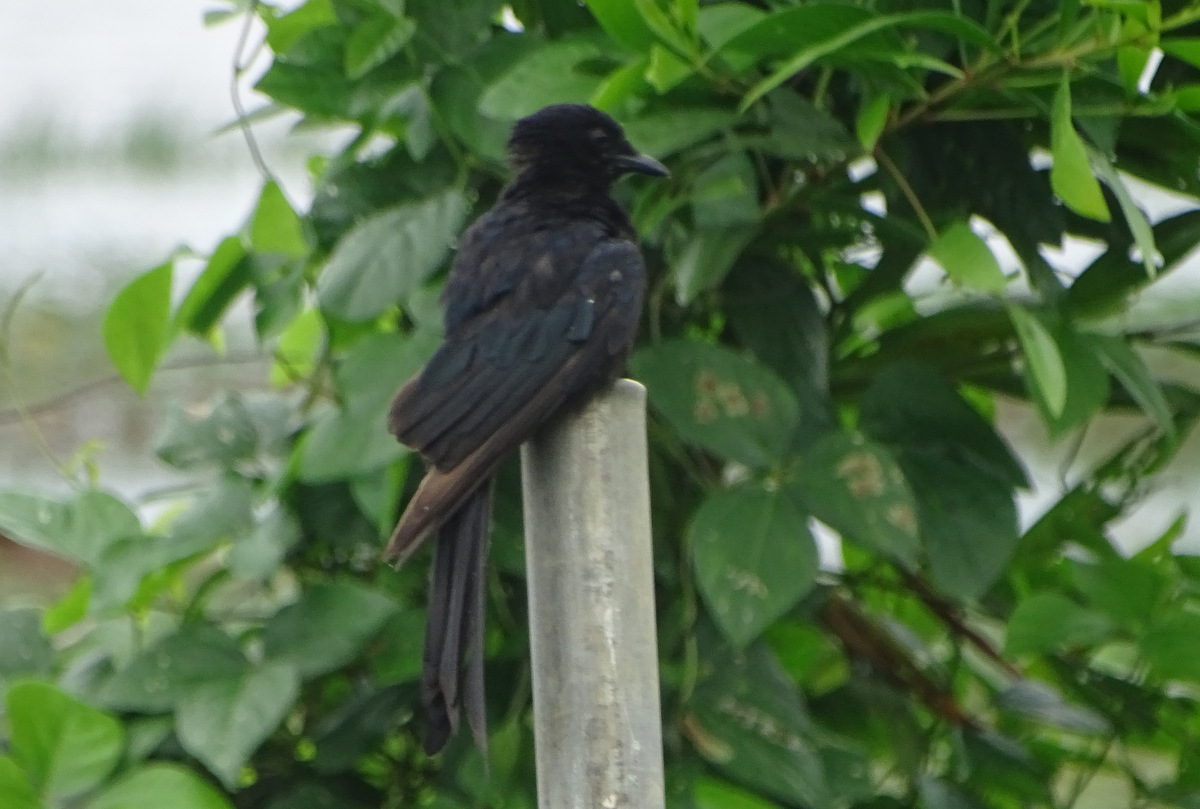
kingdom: Animalia
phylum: Chordata
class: Aves
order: Passeriformes
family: Dicruridae
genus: Dicrurus
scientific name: Dicrurus macrocercus
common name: Black drongo
